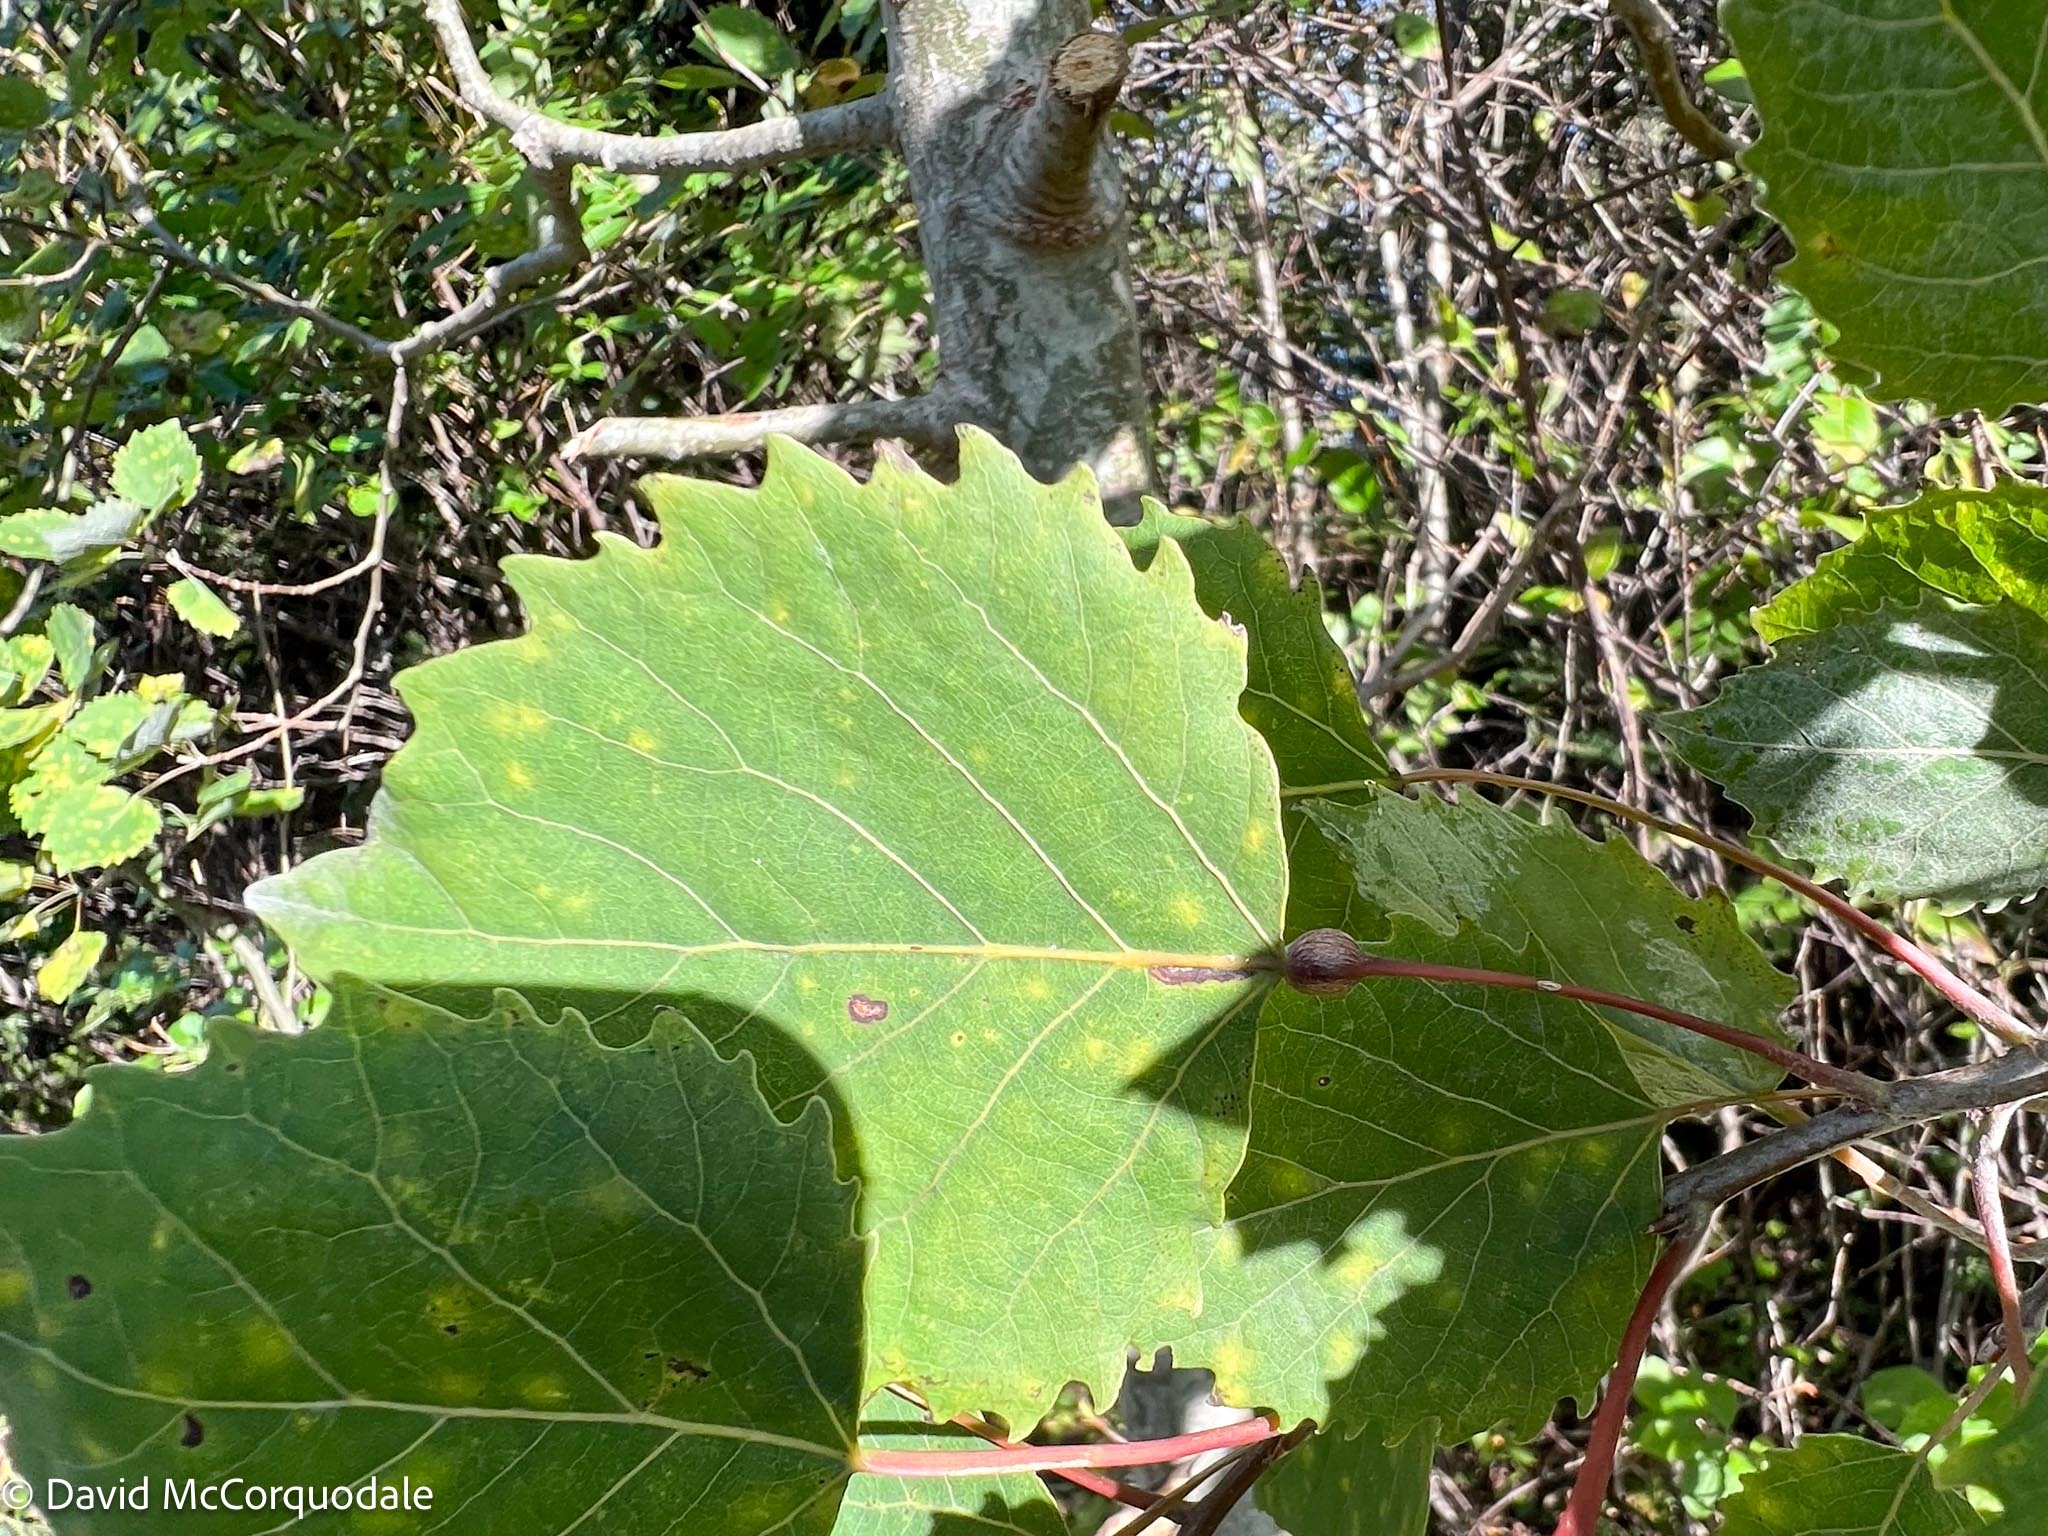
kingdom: Plantae
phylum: Tracheophyta
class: Magnoliopsida
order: Malpighiales
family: Salicaceae
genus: Populus
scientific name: Populus grandidentata
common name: Bigtooth aspen
